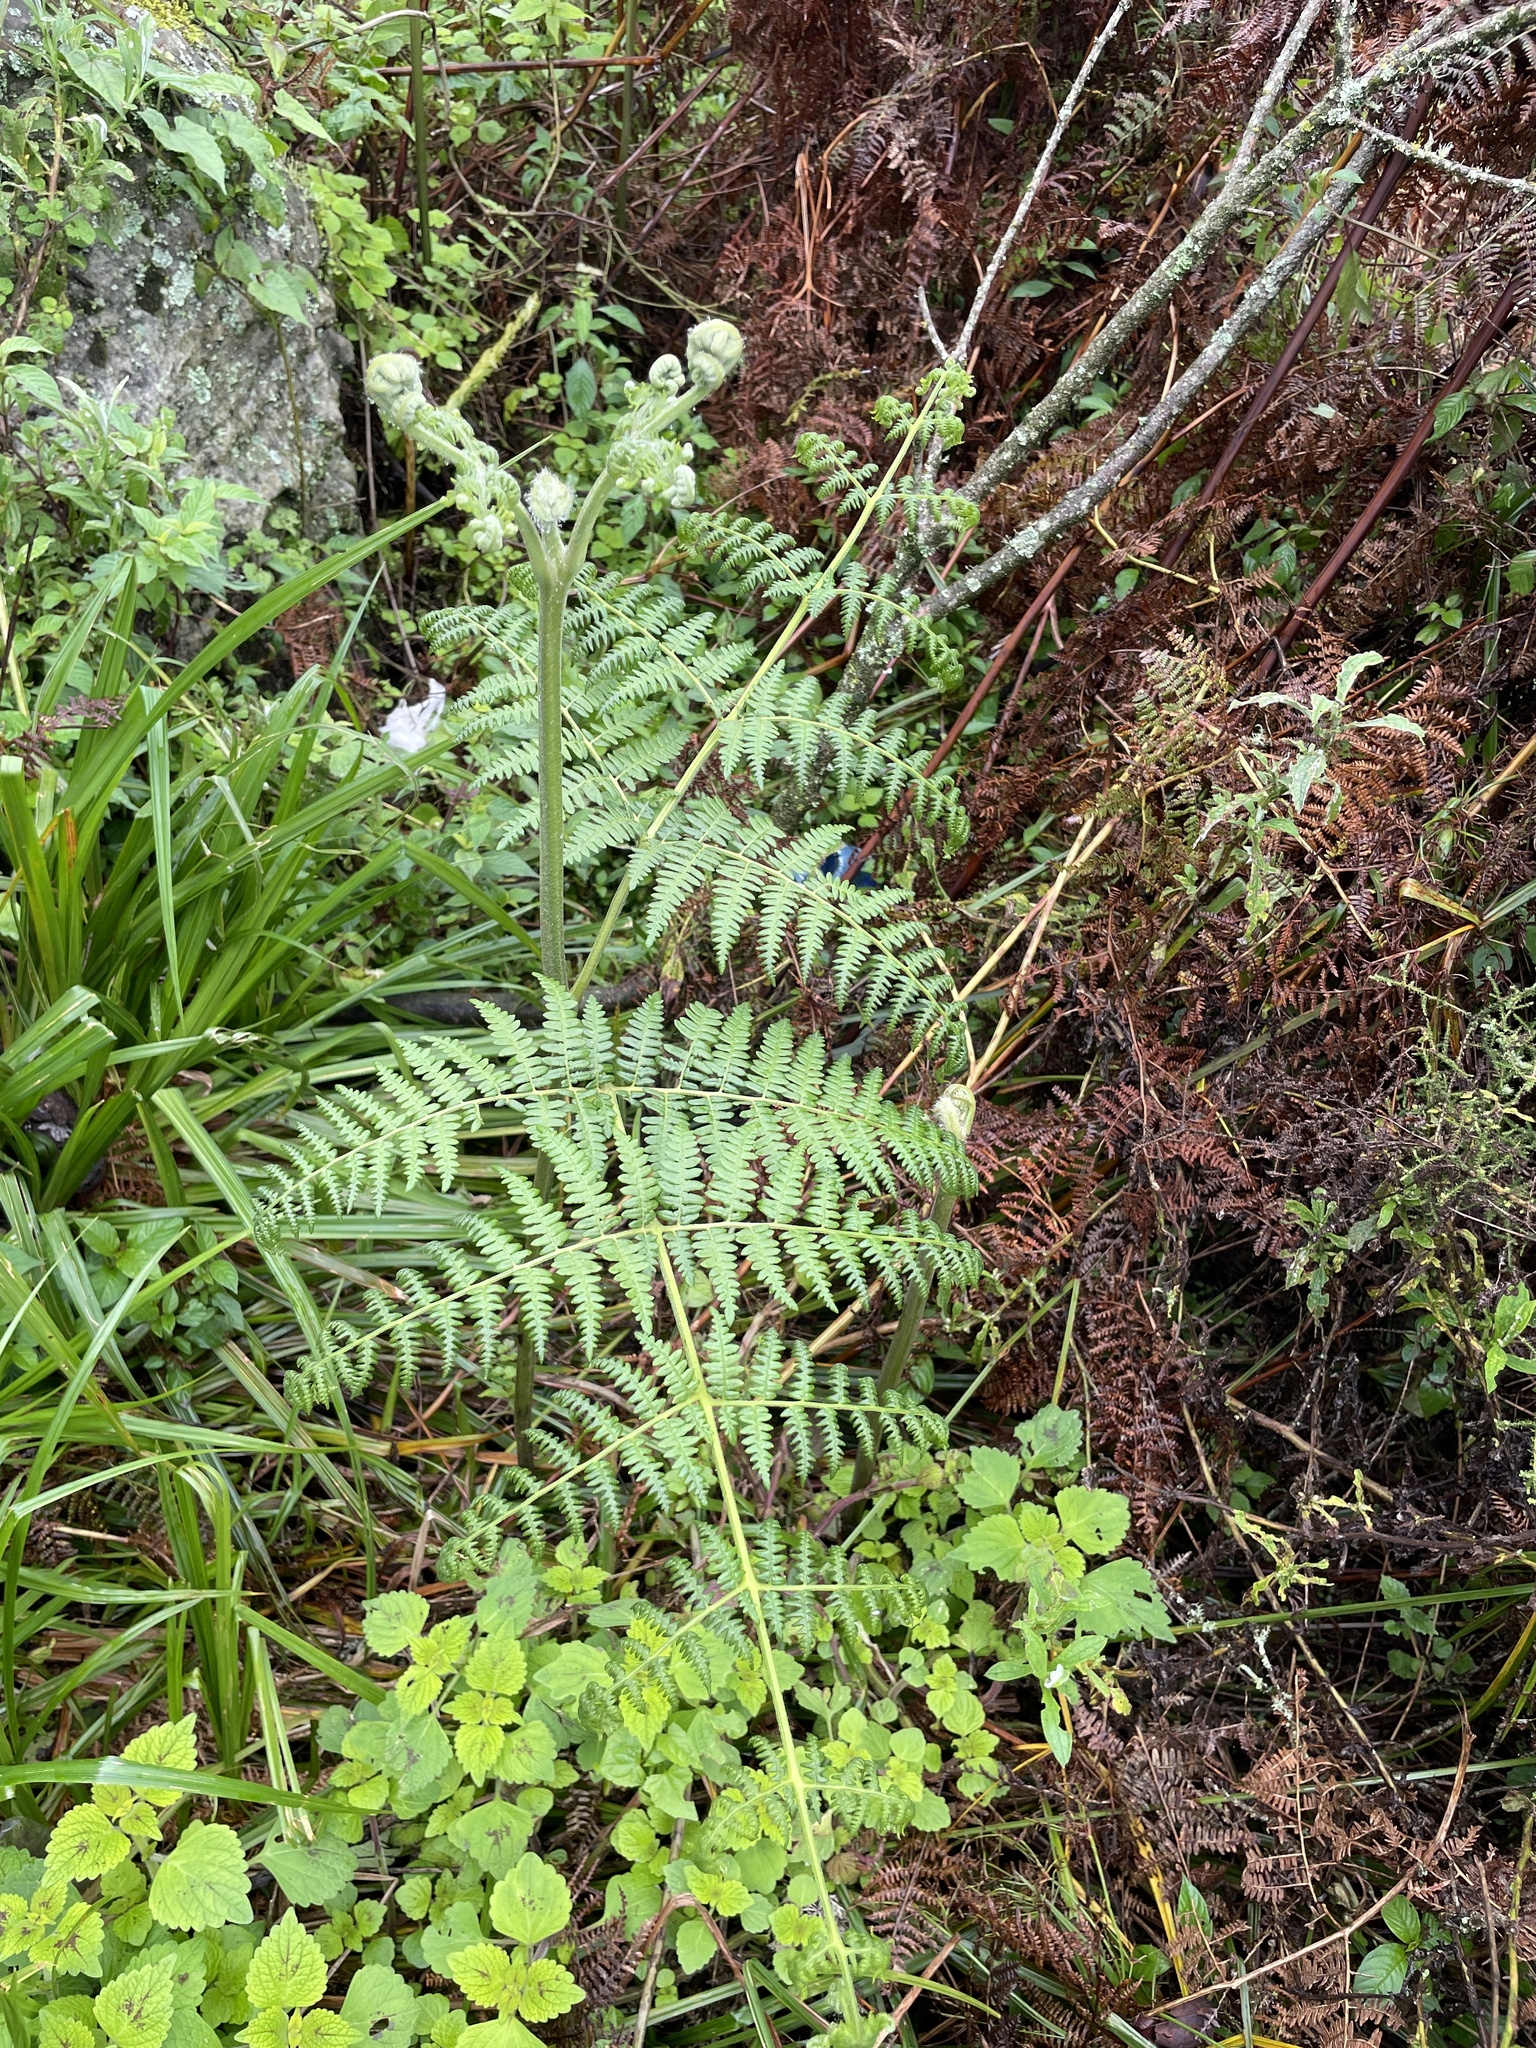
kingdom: Plantae
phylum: Tracheophyta
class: Polypodiopsida
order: Polypodiales
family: Dennstaedtiaceae
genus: Pteridium
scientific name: Pteridium aquilinum
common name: Bracken
